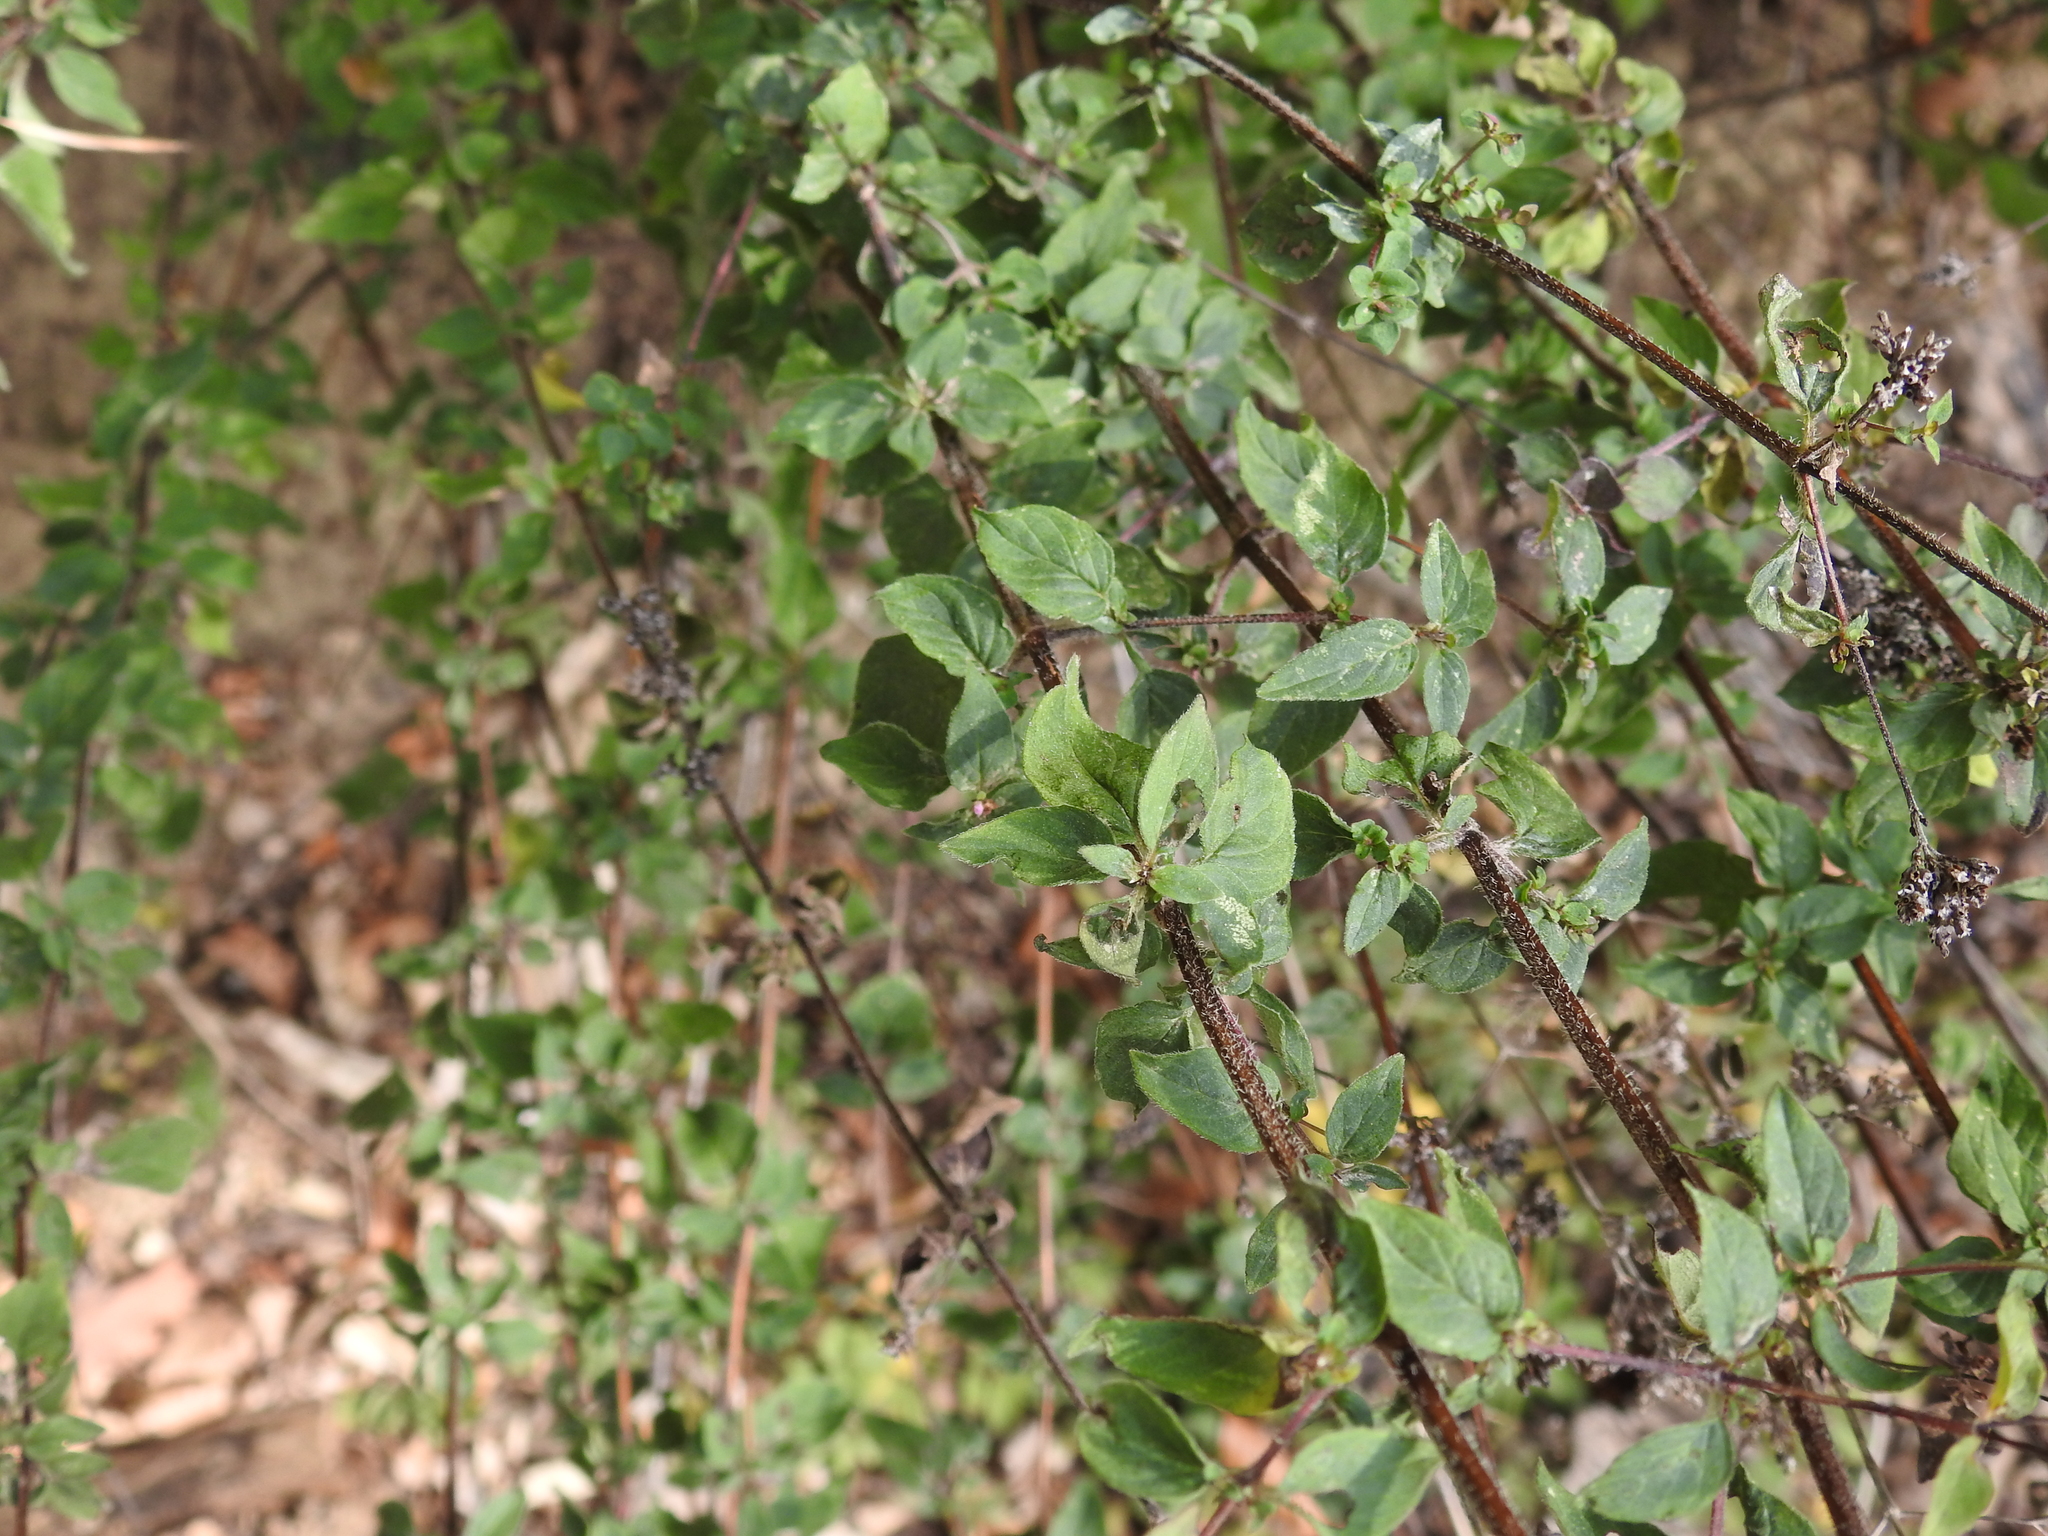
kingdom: Plantae
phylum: Tracheophyta
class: Magnoliopsida
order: Lamiales
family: Lamiaceae
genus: Origanum
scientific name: Origanum vulgare
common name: Wild marjoram
